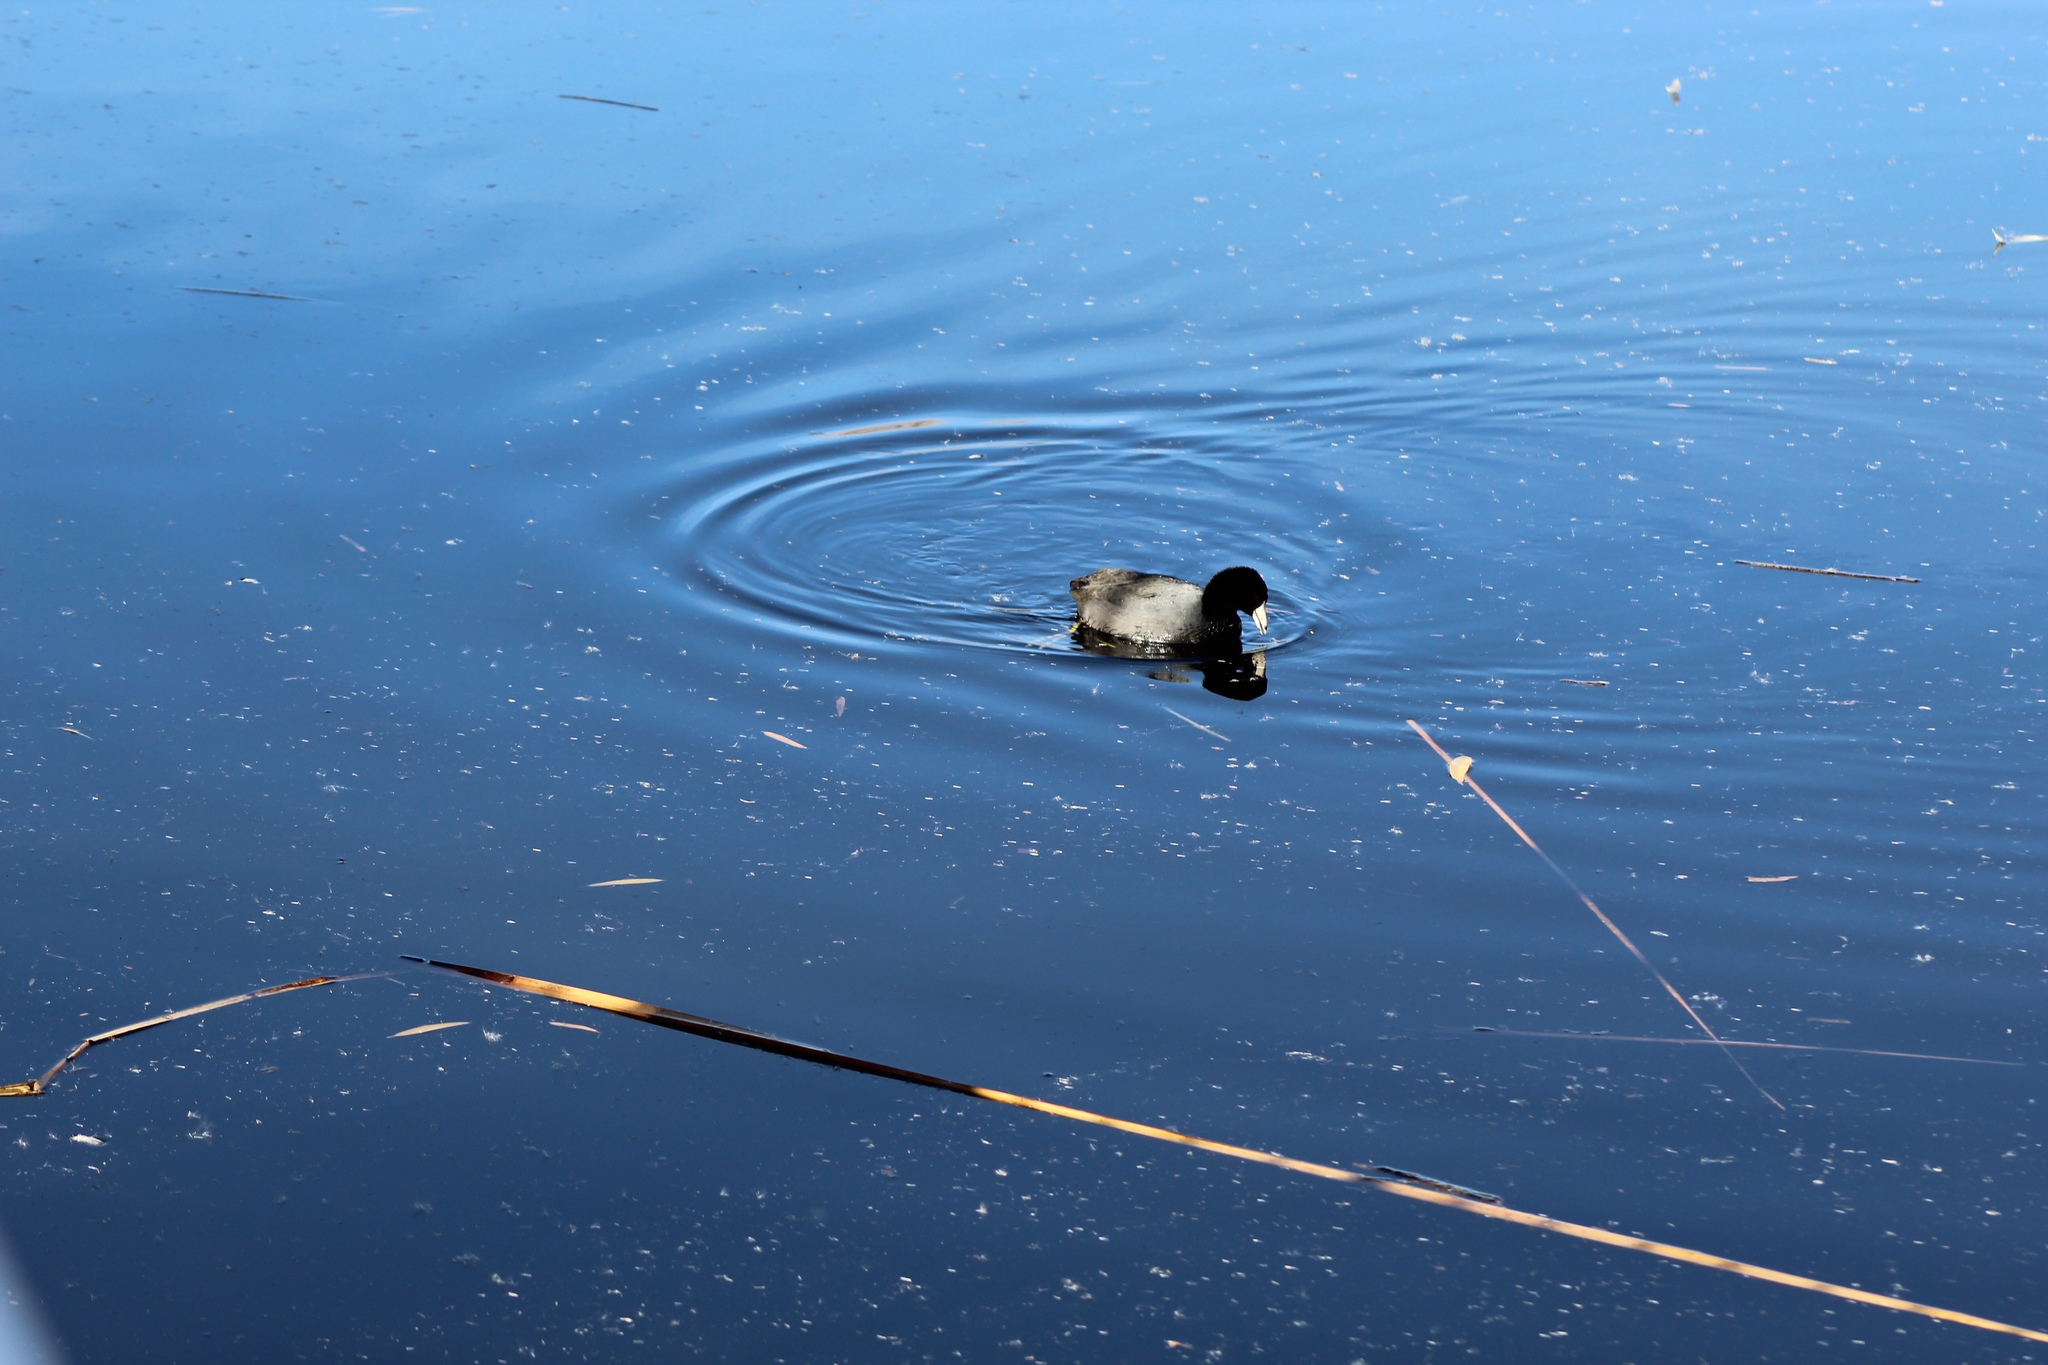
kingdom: Animalia
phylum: Chordata
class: Aves
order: Gruiformes
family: Rallidae
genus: Fulica
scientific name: Fulica americana
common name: American coot
